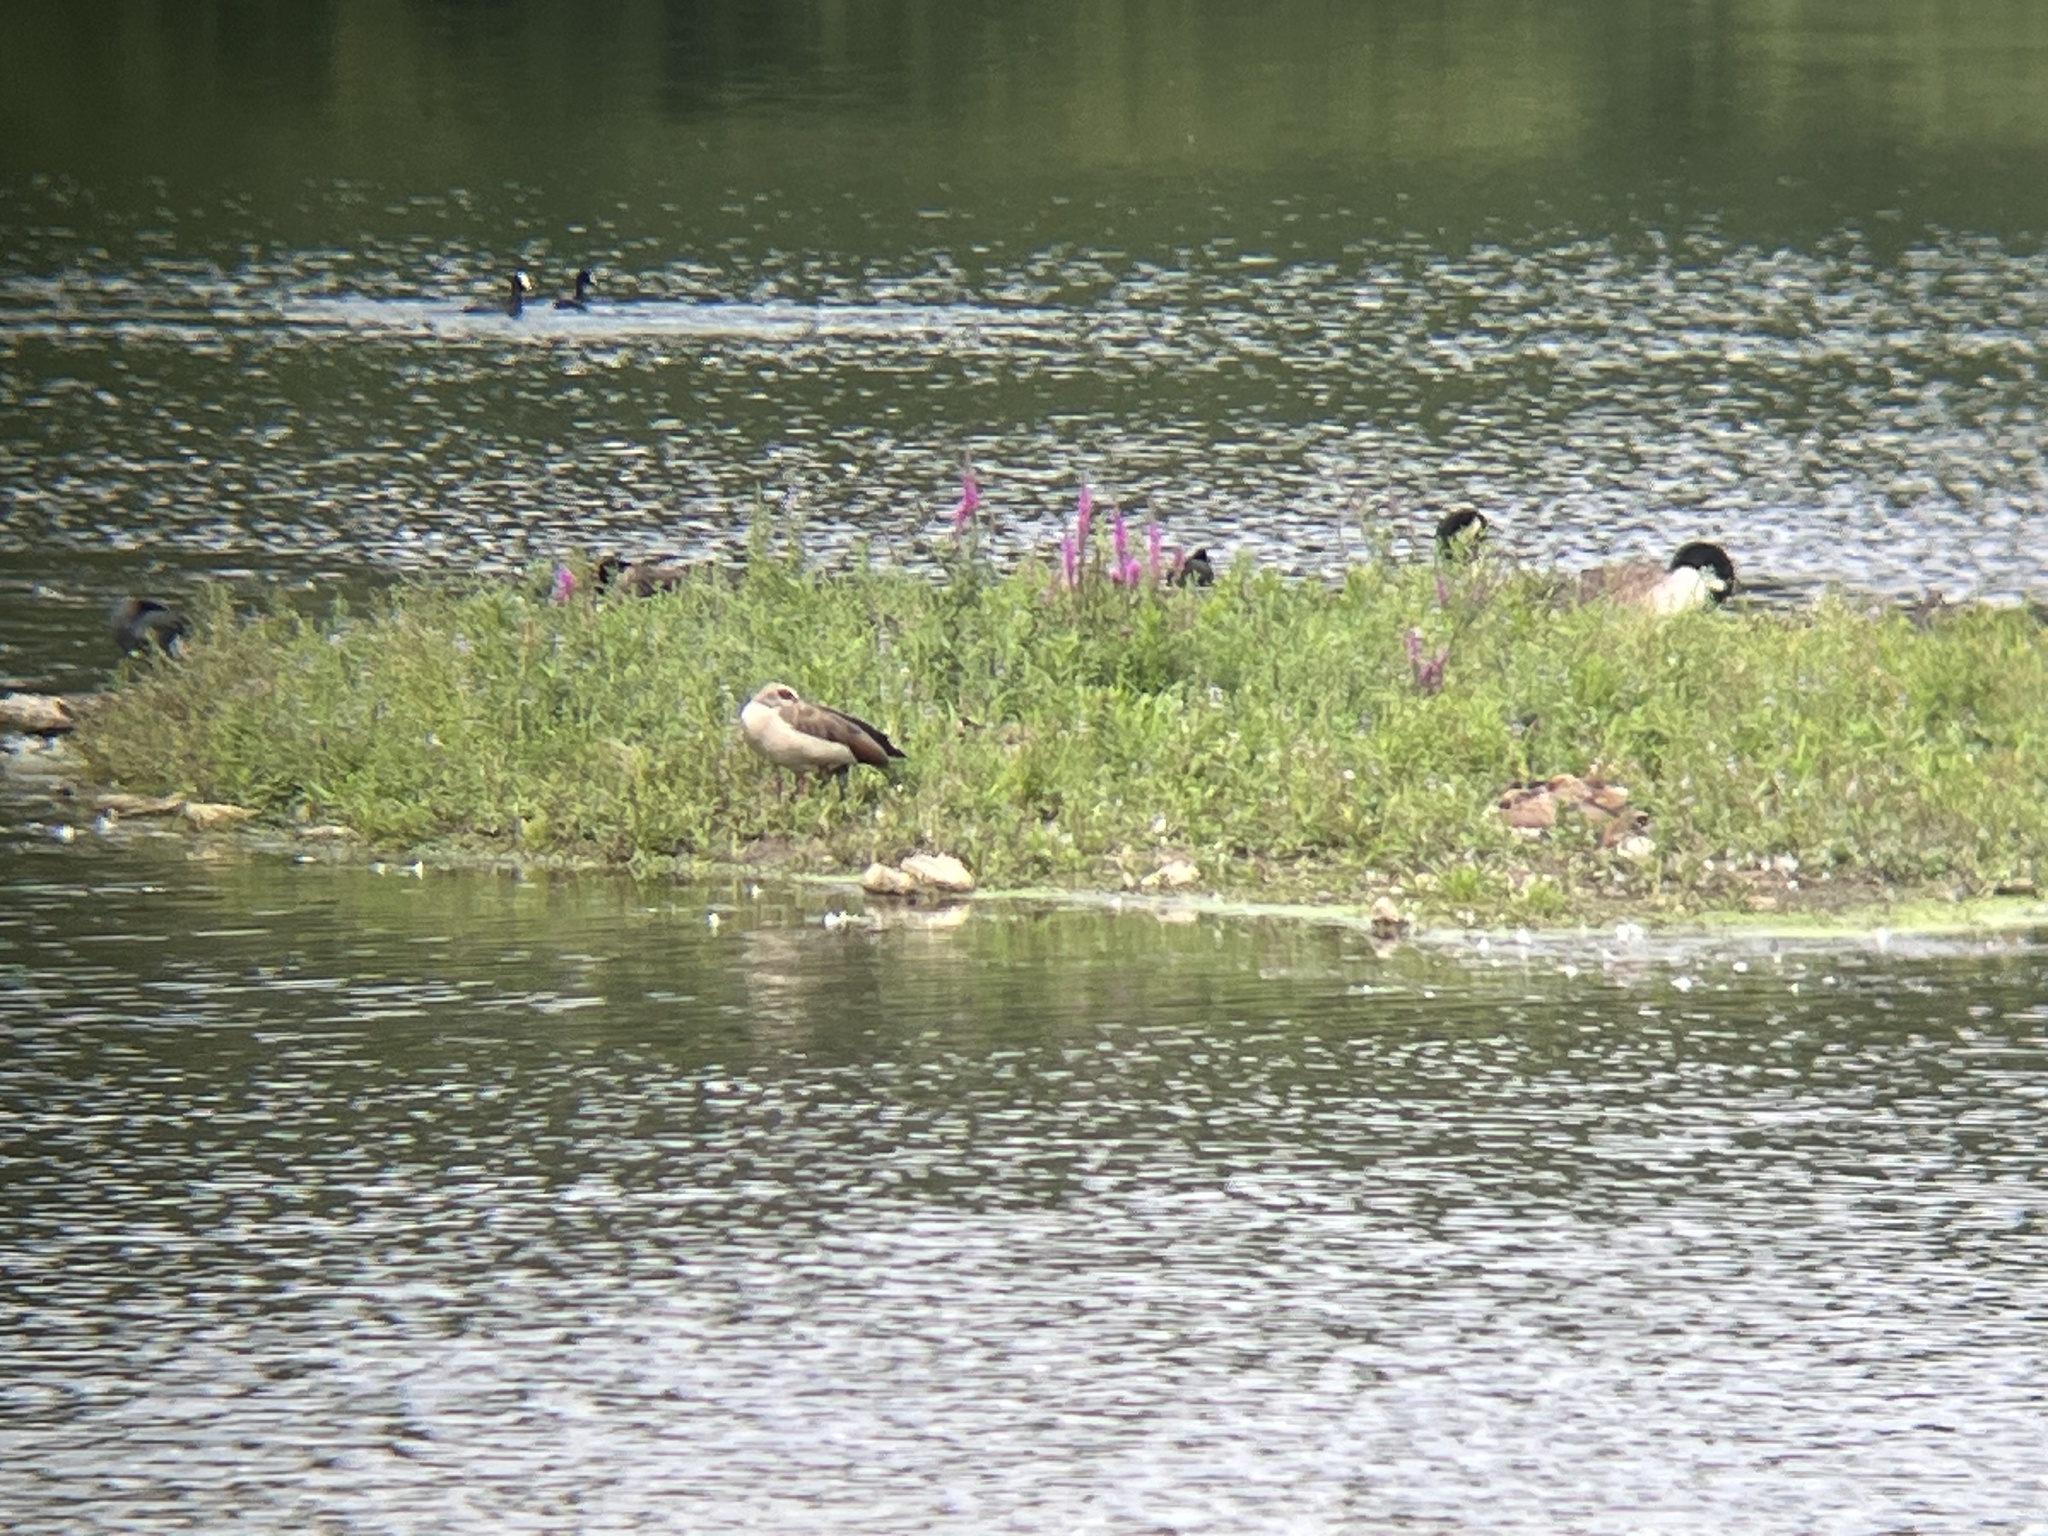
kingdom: Animalia
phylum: Chordata
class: Aves
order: Anseriformes
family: Anatidae
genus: Alopochen
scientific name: Alopochen aegyptiaca
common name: Egyptian goose
